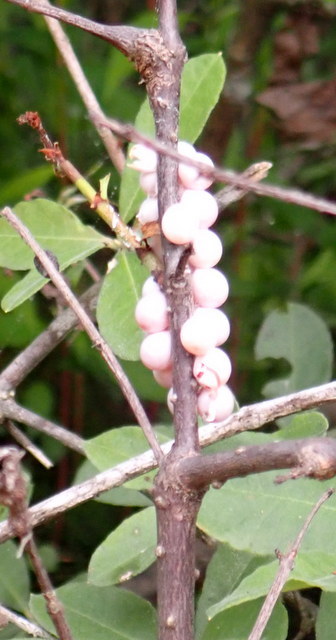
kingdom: Animalia
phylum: Mollusca
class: Gastropoda
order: Architaenioglossa
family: Ampullariidae
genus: Pomacea
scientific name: Pomacea paludosa
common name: Florida applesnail
